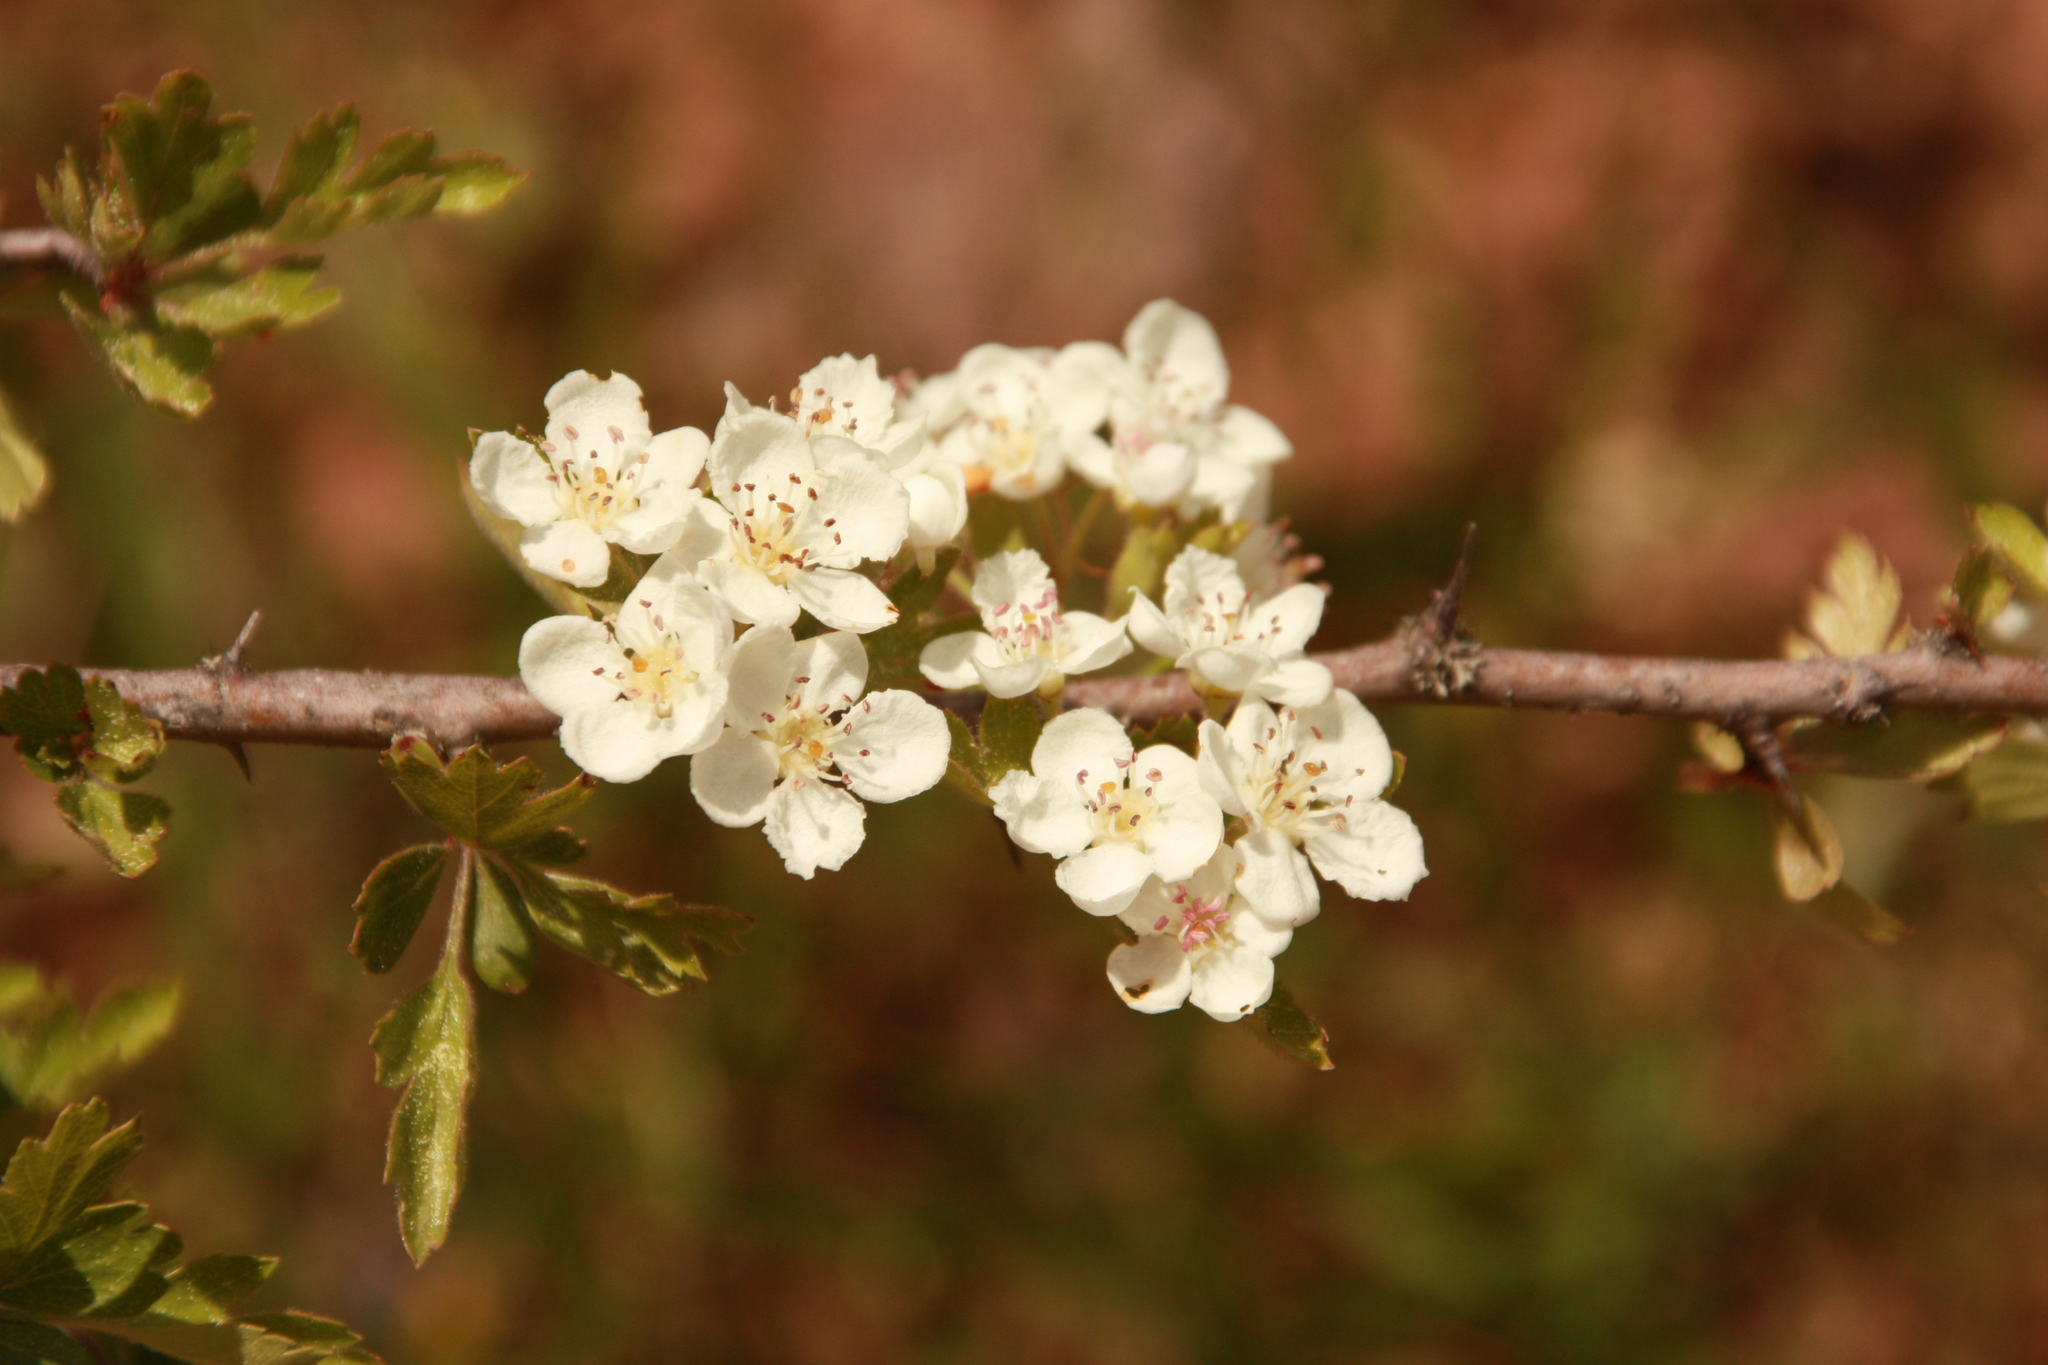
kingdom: Plantae
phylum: Tracheophyta
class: Magnoliopsida
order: Rosales
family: Rosaceae
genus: Crataegus
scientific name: Crataegus monogyna
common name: Hawthorn
